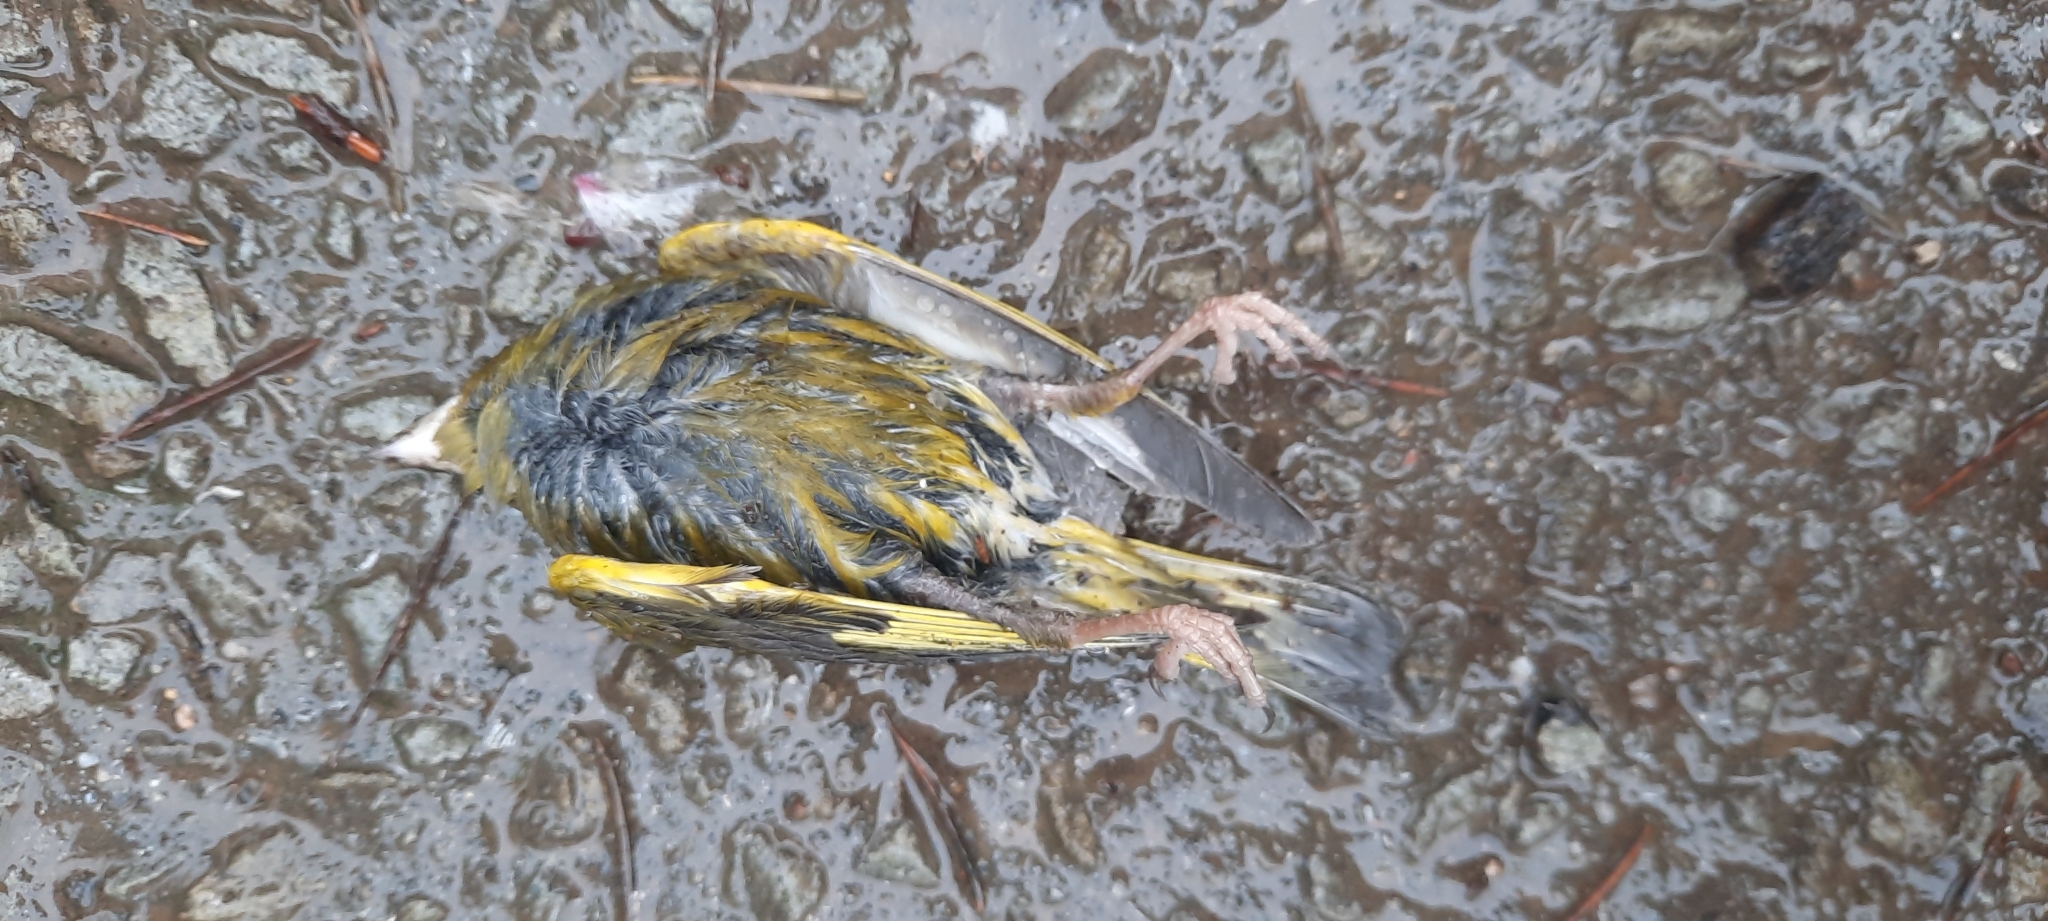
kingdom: Plantae
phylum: Tracheophyta
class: Liliopsida
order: Poales
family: Poaceae
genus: Chloris
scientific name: Chloris chloris
